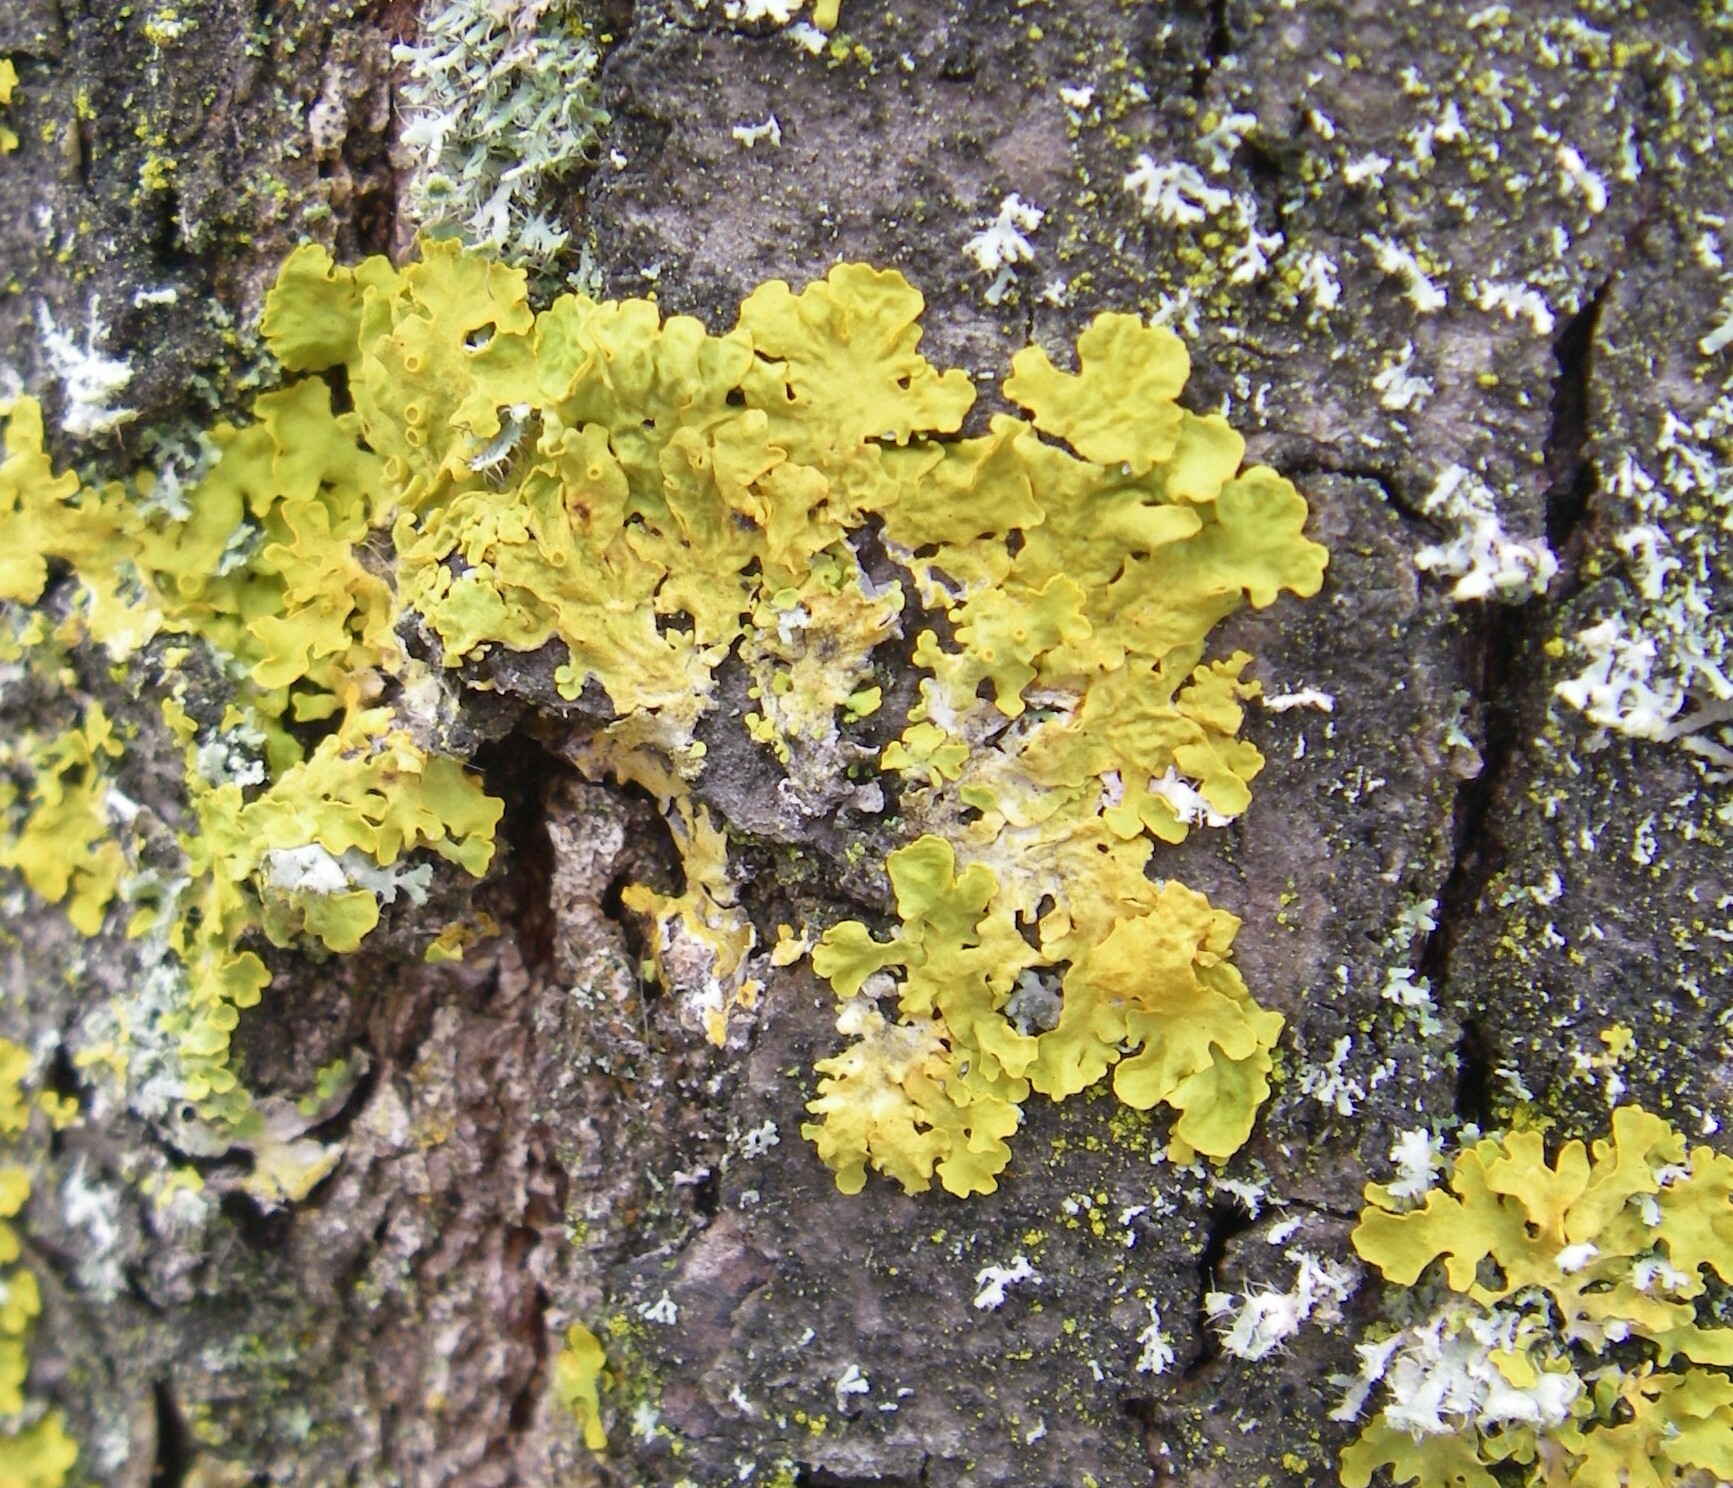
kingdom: Fungi
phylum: Ascomycota
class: Lecanoromycetes
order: Teloschistales
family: Teloschistaceae
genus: Xanthoria
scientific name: Xanthoria parietina
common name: Common orange lichen
